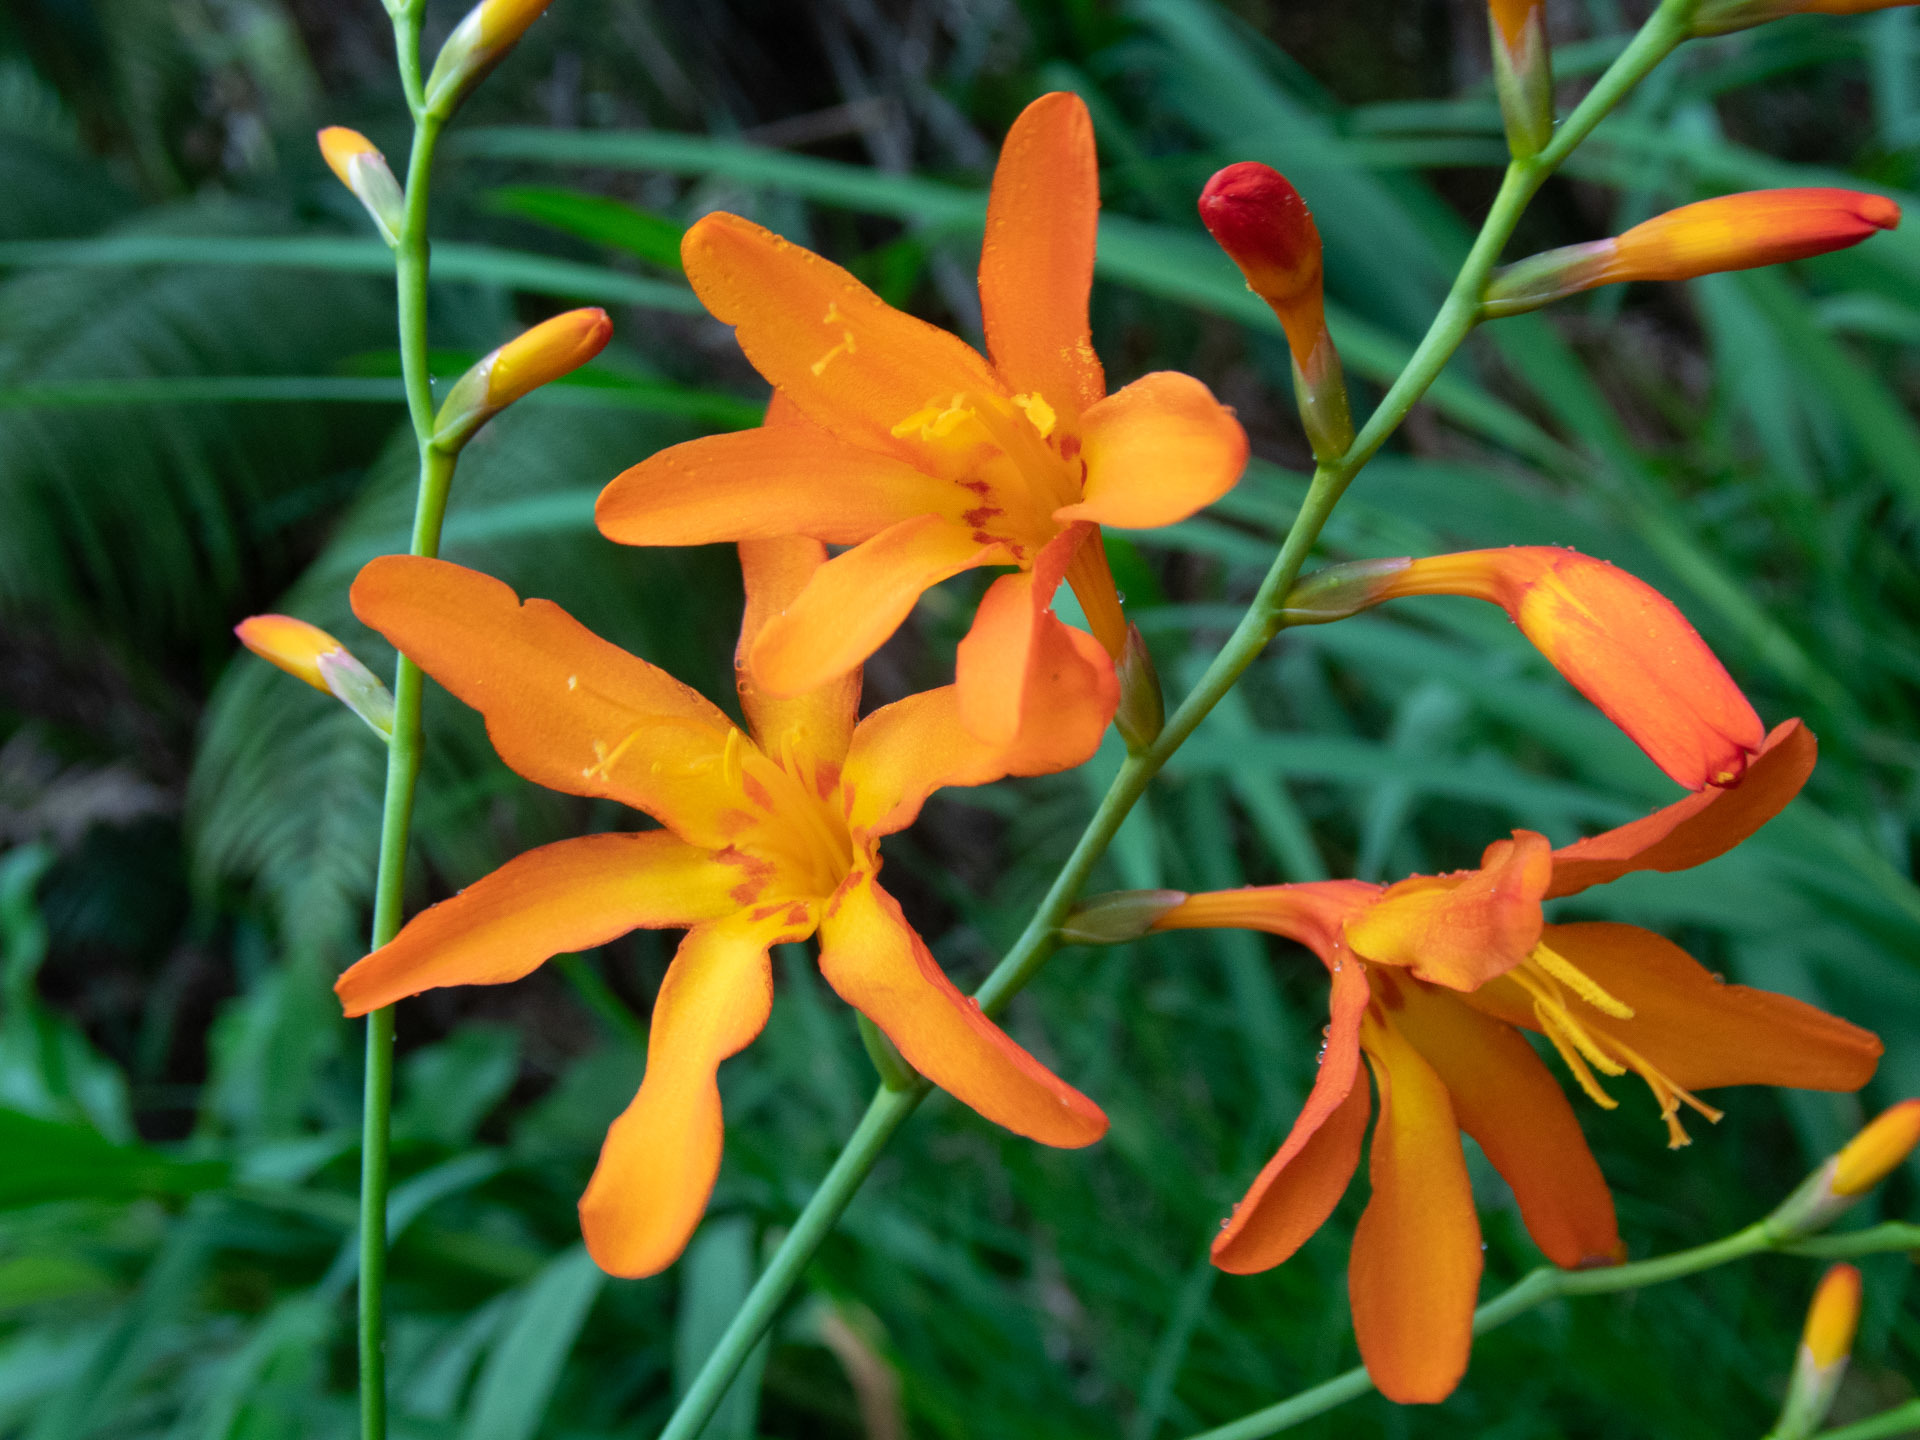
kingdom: Plantae
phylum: Tracheophyta
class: Liliopsida
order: Asparagales
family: Iridaceae
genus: Crocosmia
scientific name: Crocosmia crocosmiiflora
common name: Montbretia
